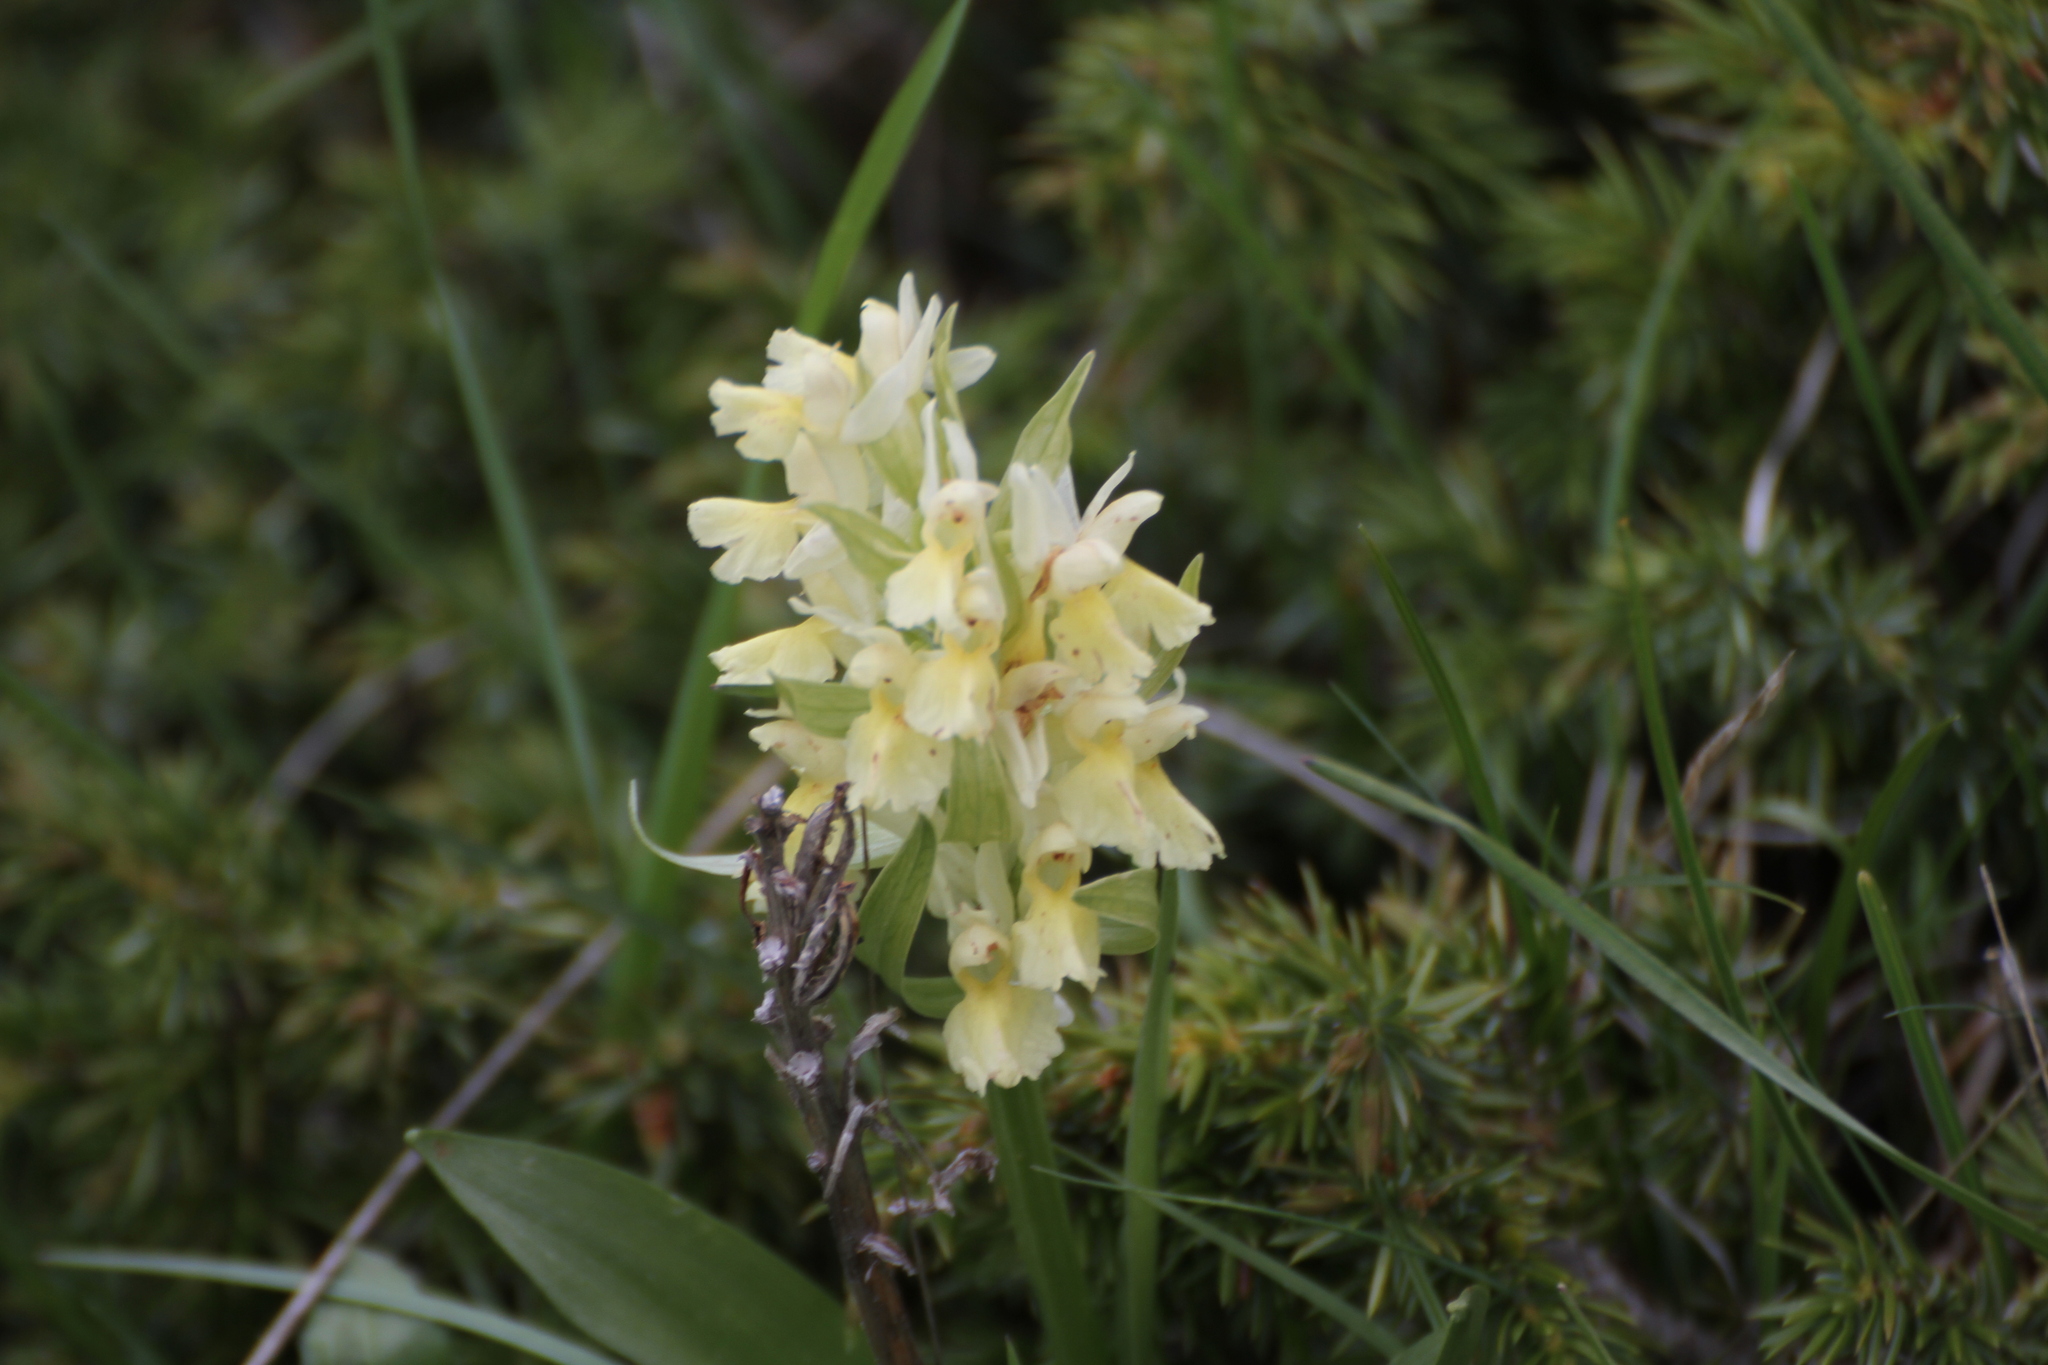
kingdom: Plantae
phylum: Tracheophyta
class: Liliopsida
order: Asparagales
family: Orchidaceae
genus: Dactylorhiza
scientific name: Dactylorhiza sambucina
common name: Elder-flowered orchid
